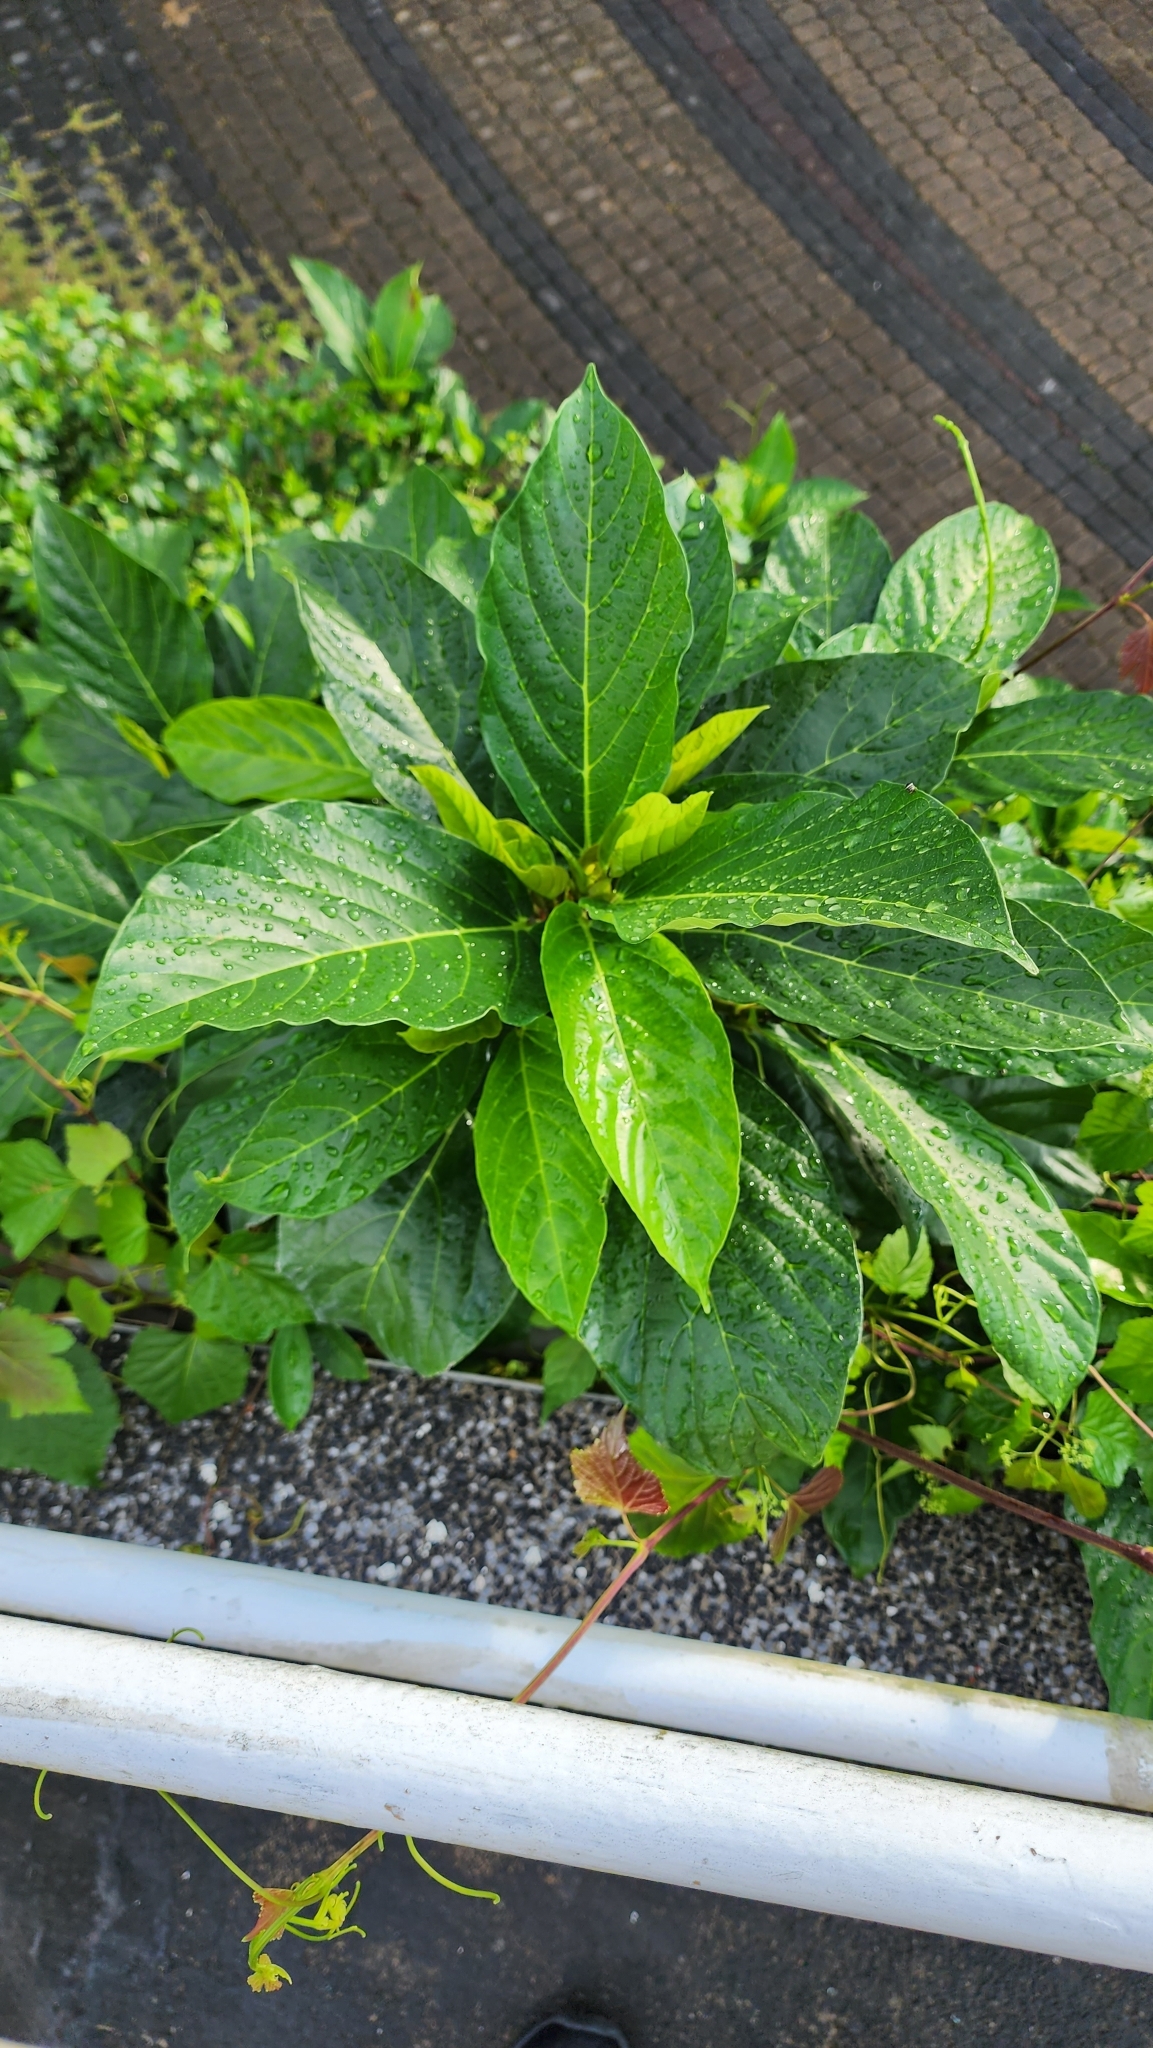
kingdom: Plantae
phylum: Tracheophyta
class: Magnoliopsida
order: Rosales
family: Moraceae
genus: Ficus
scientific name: Ficus benguetensis
